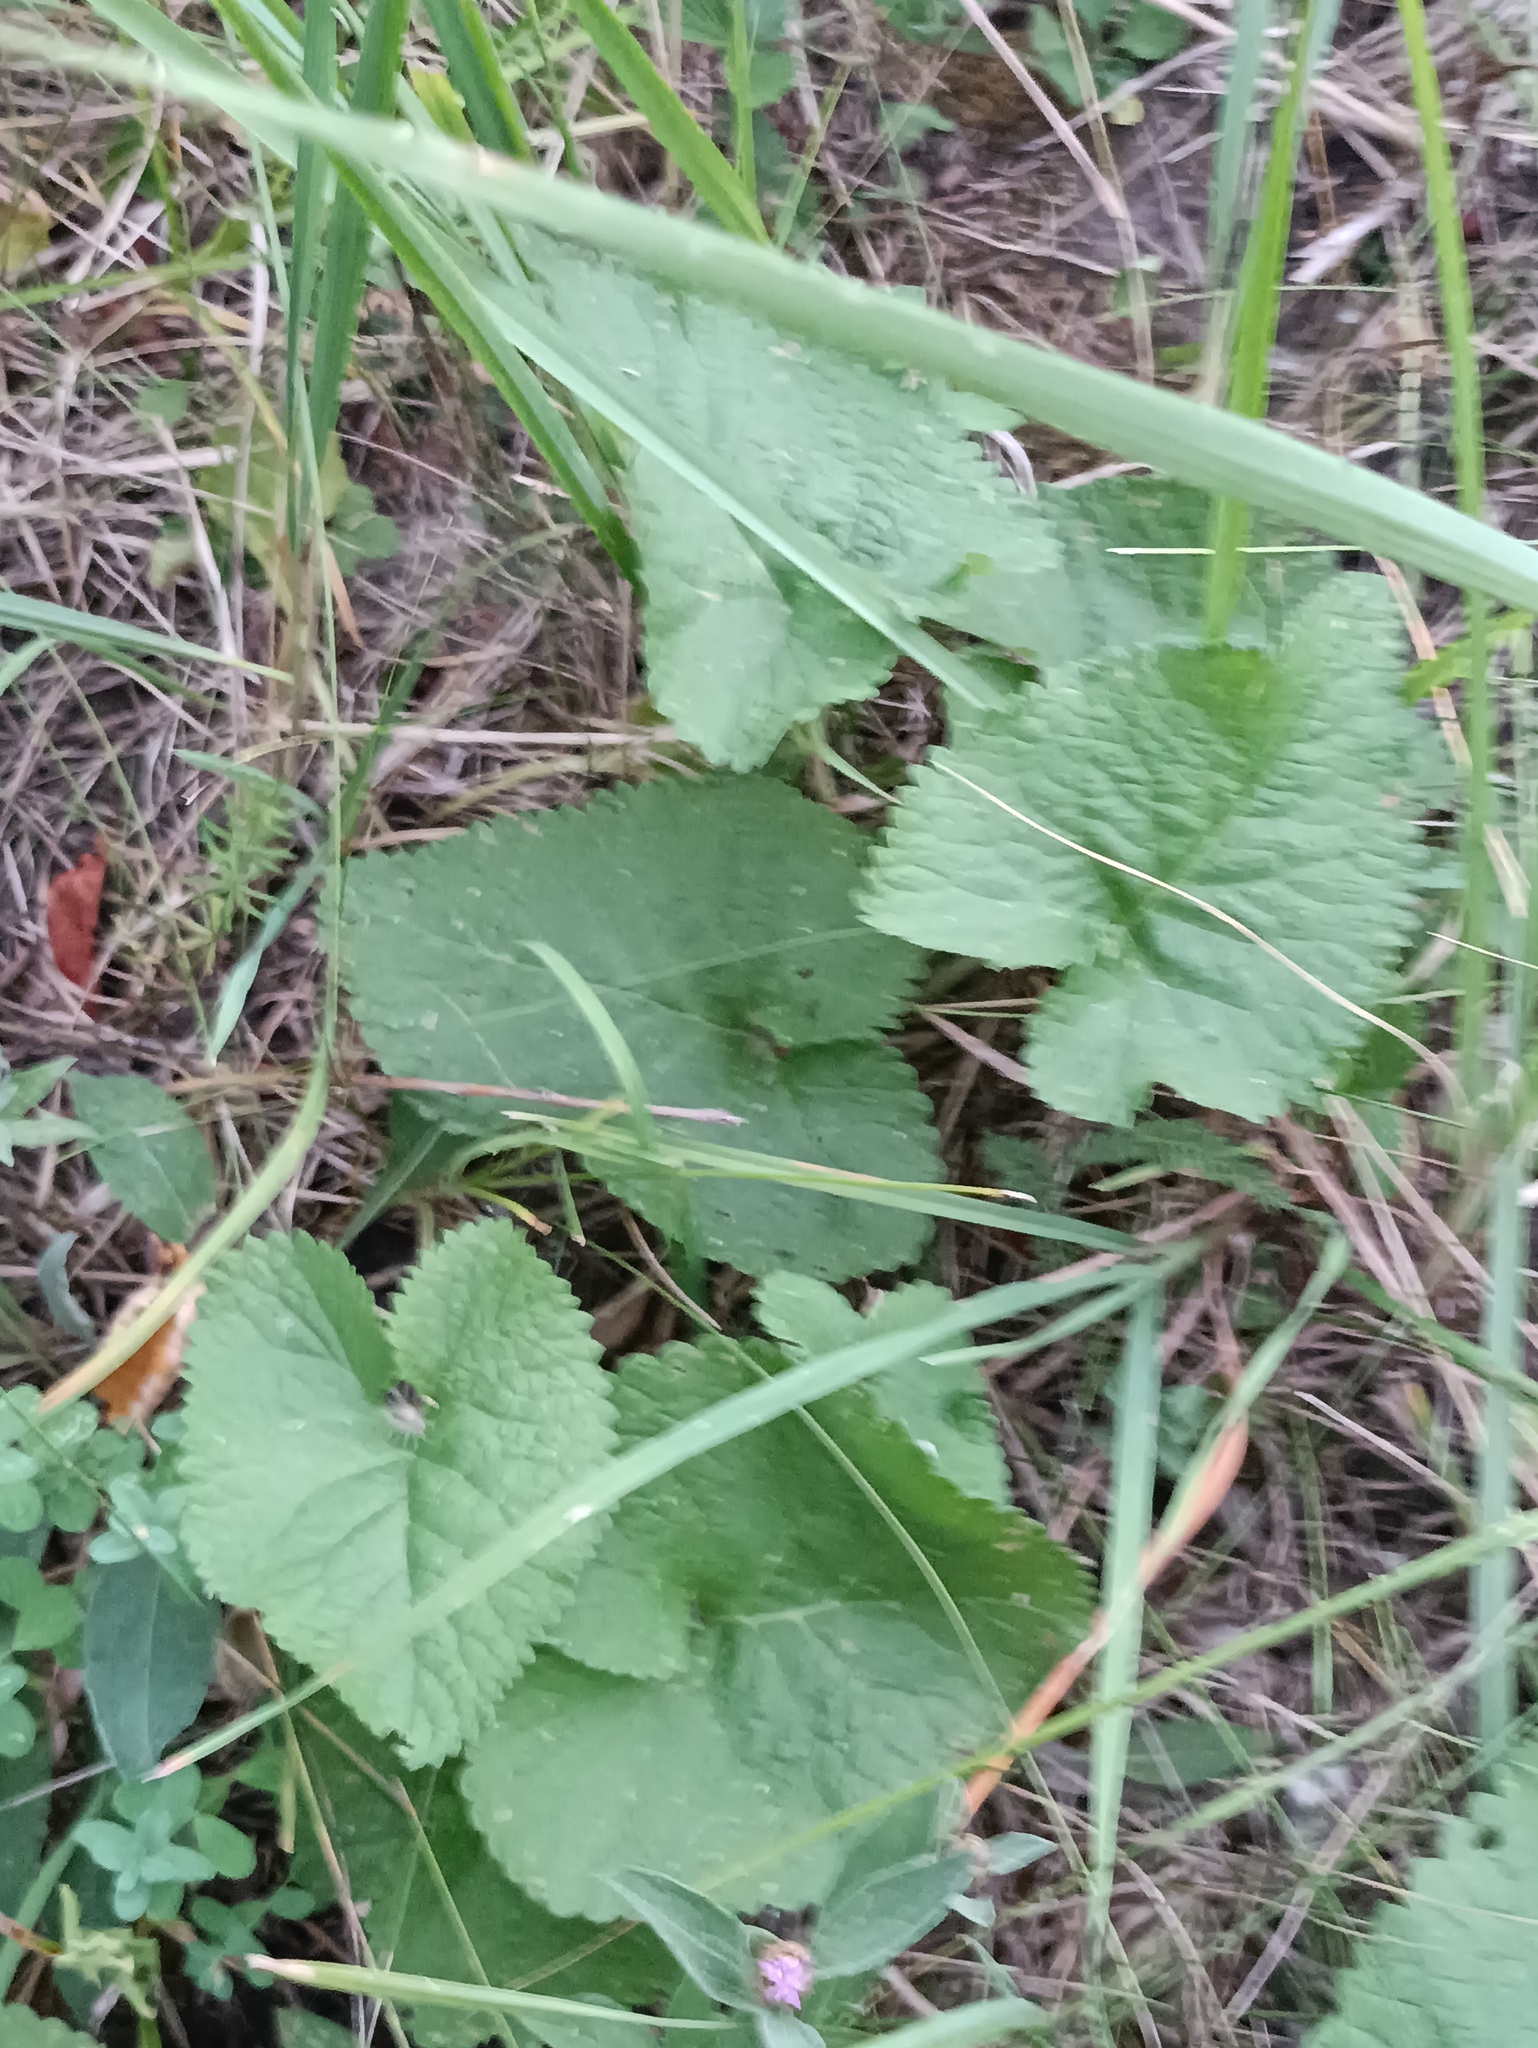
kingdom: Plantae
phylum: Tracheophyta
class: Magnoliopsida
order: Lamiales
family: Lamiaceae
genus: Phlomoides
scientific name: Phlomoides tuberosa
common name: Tuberous jerusalem sage
